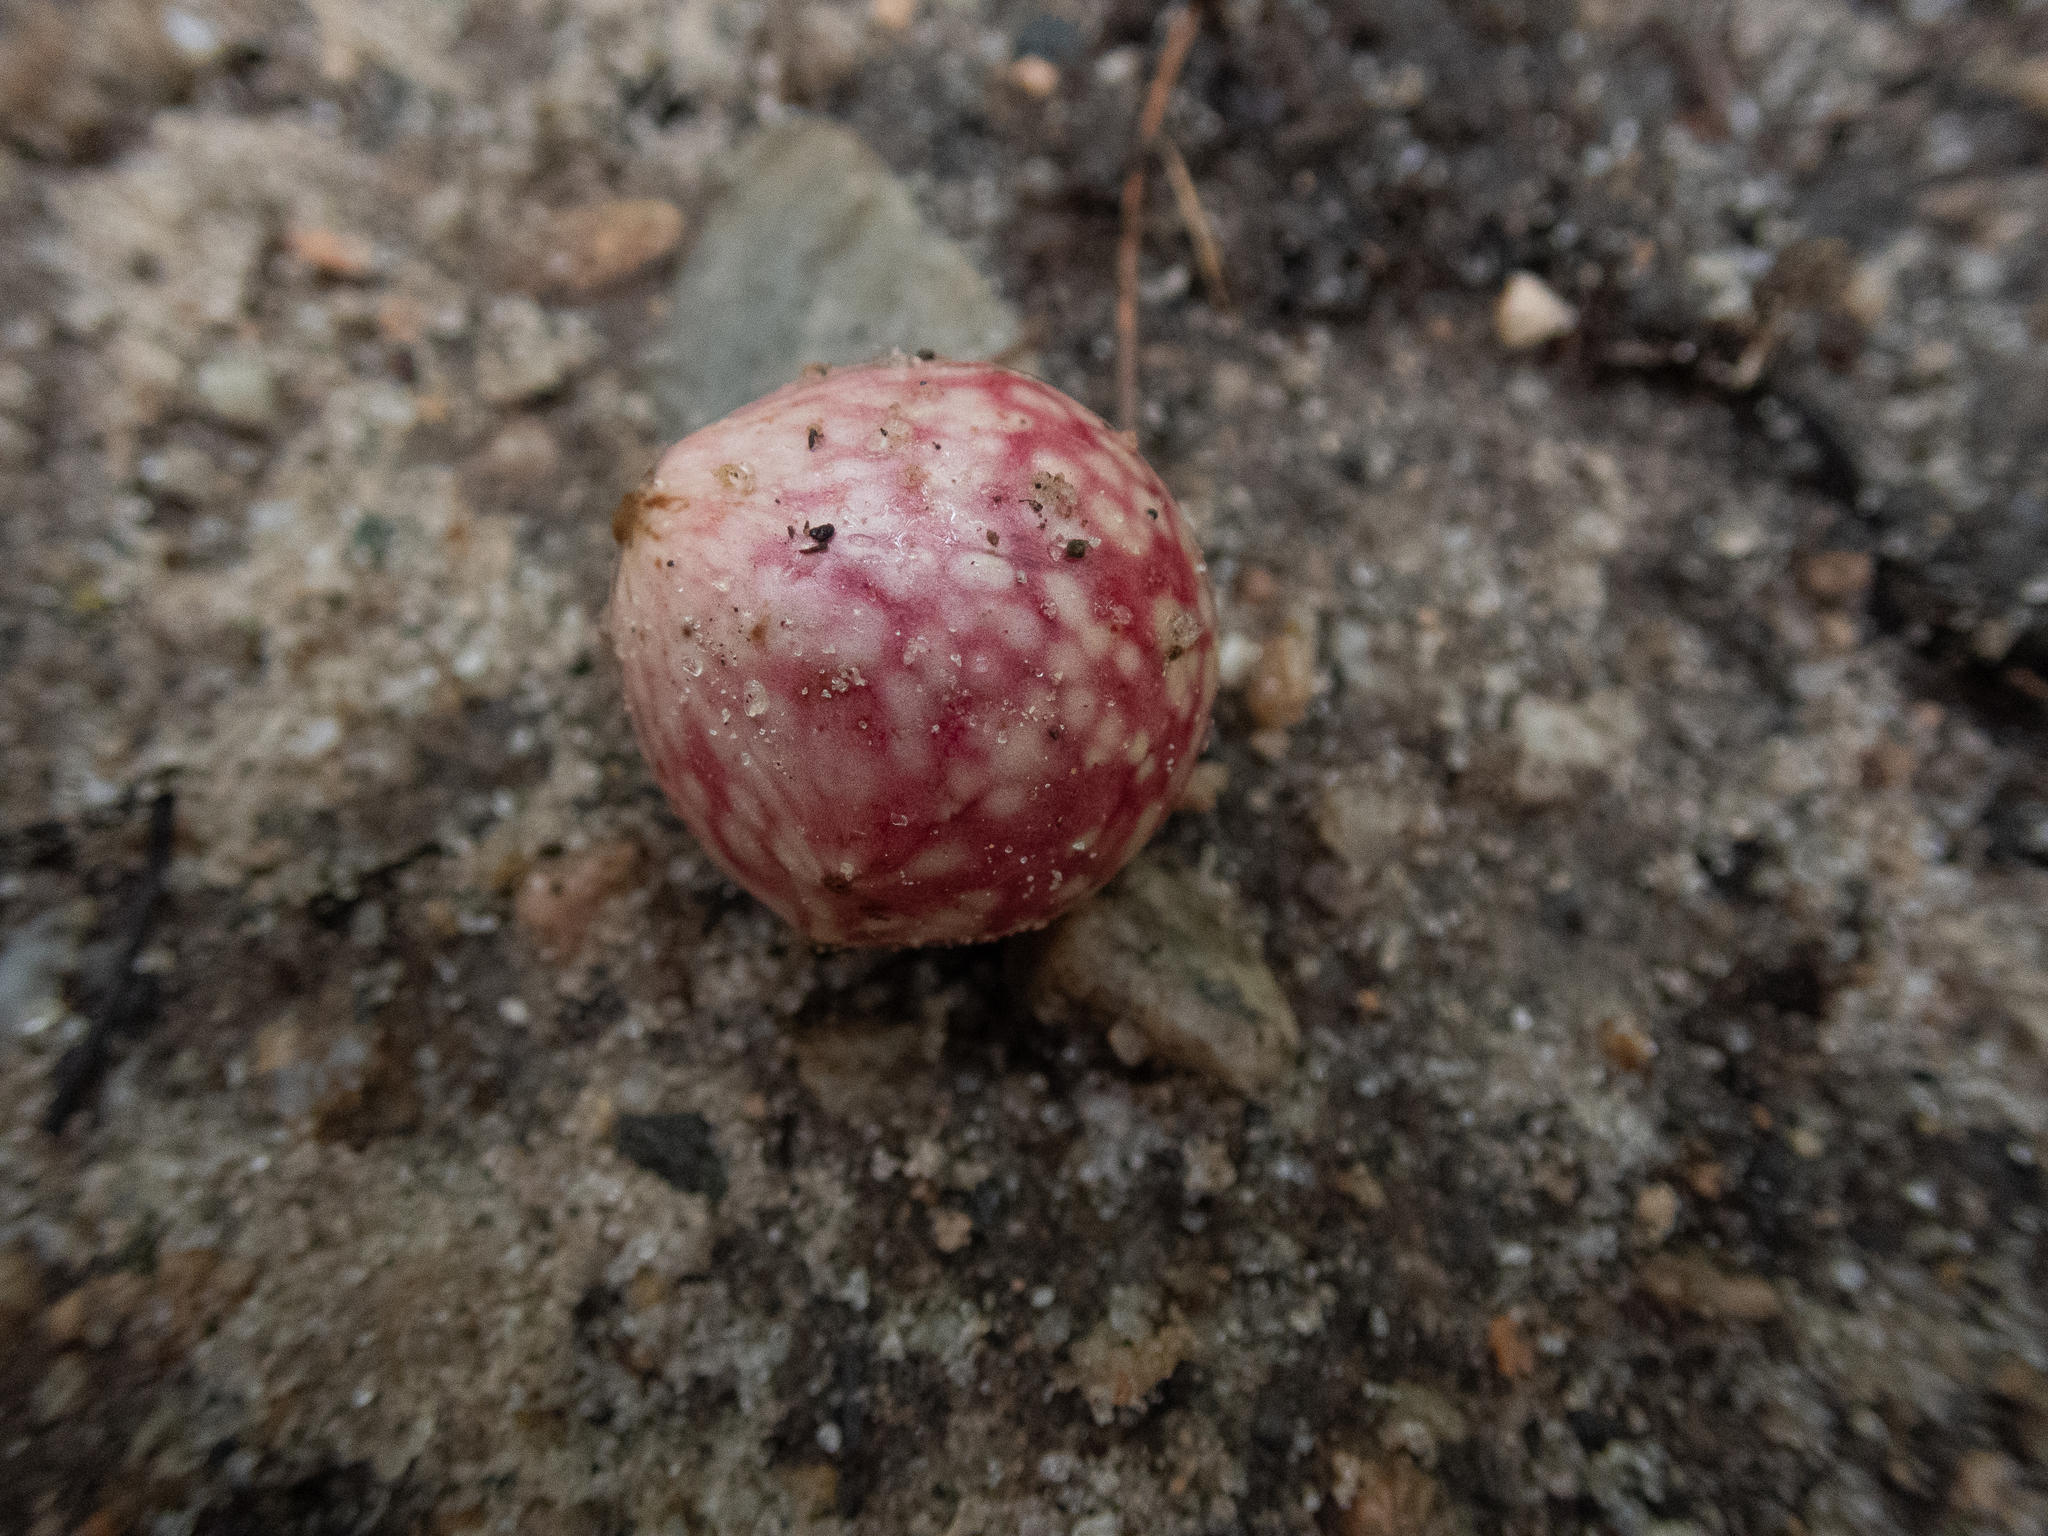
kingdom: Animalia
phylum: Arthropoda
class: Insecta
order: Hymenoptera
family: Cynipidae
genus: Amphibolips
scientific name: Amphibolips
